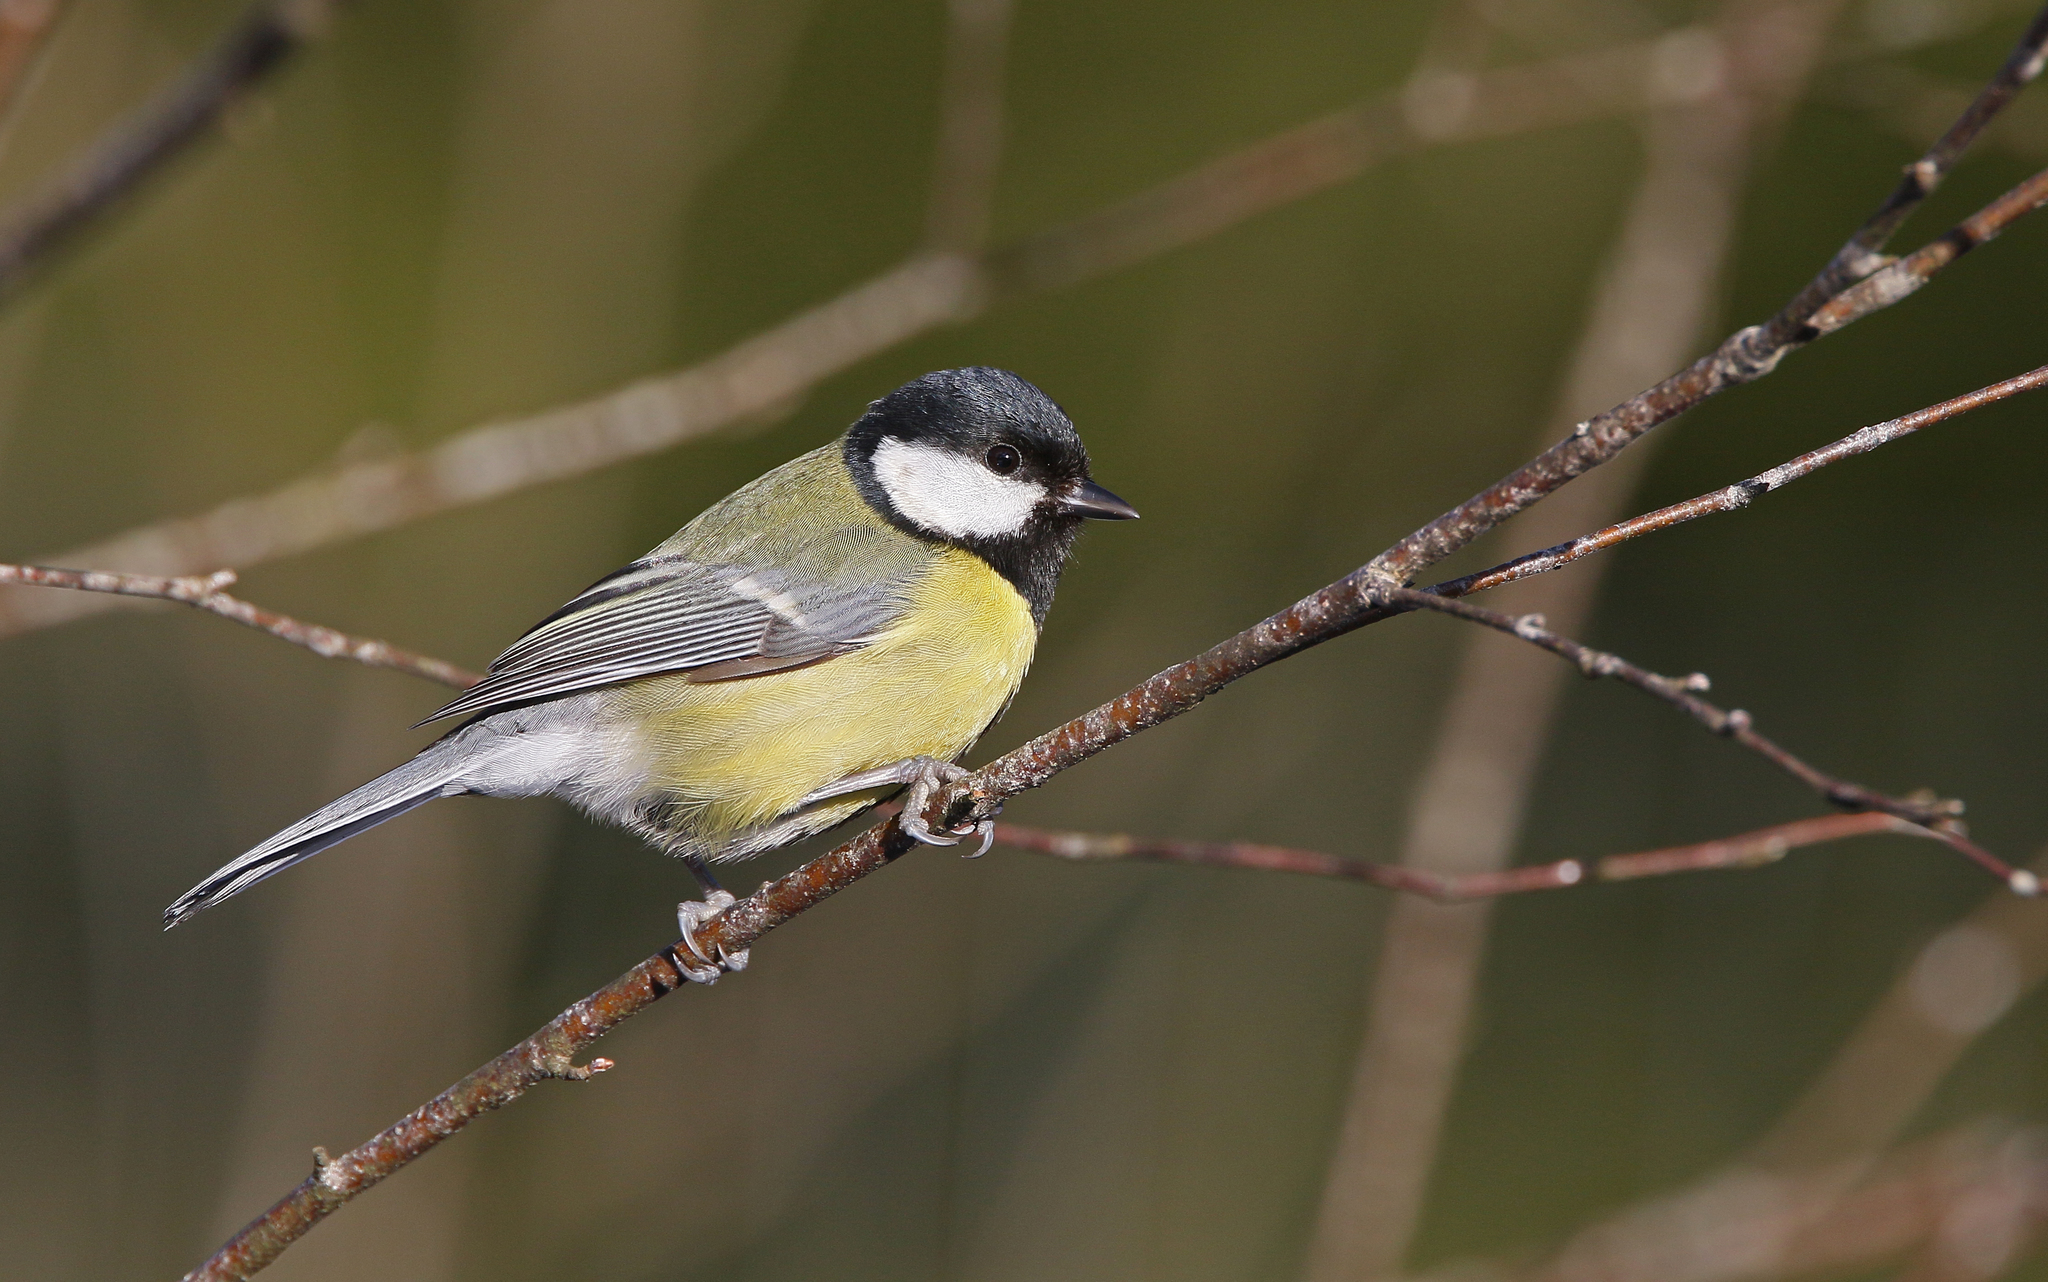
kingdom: Animalia
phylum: Chordata
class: Aves
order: Passeriformes
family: Paridae
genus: Parus
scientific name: Parus major
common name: Great tit
